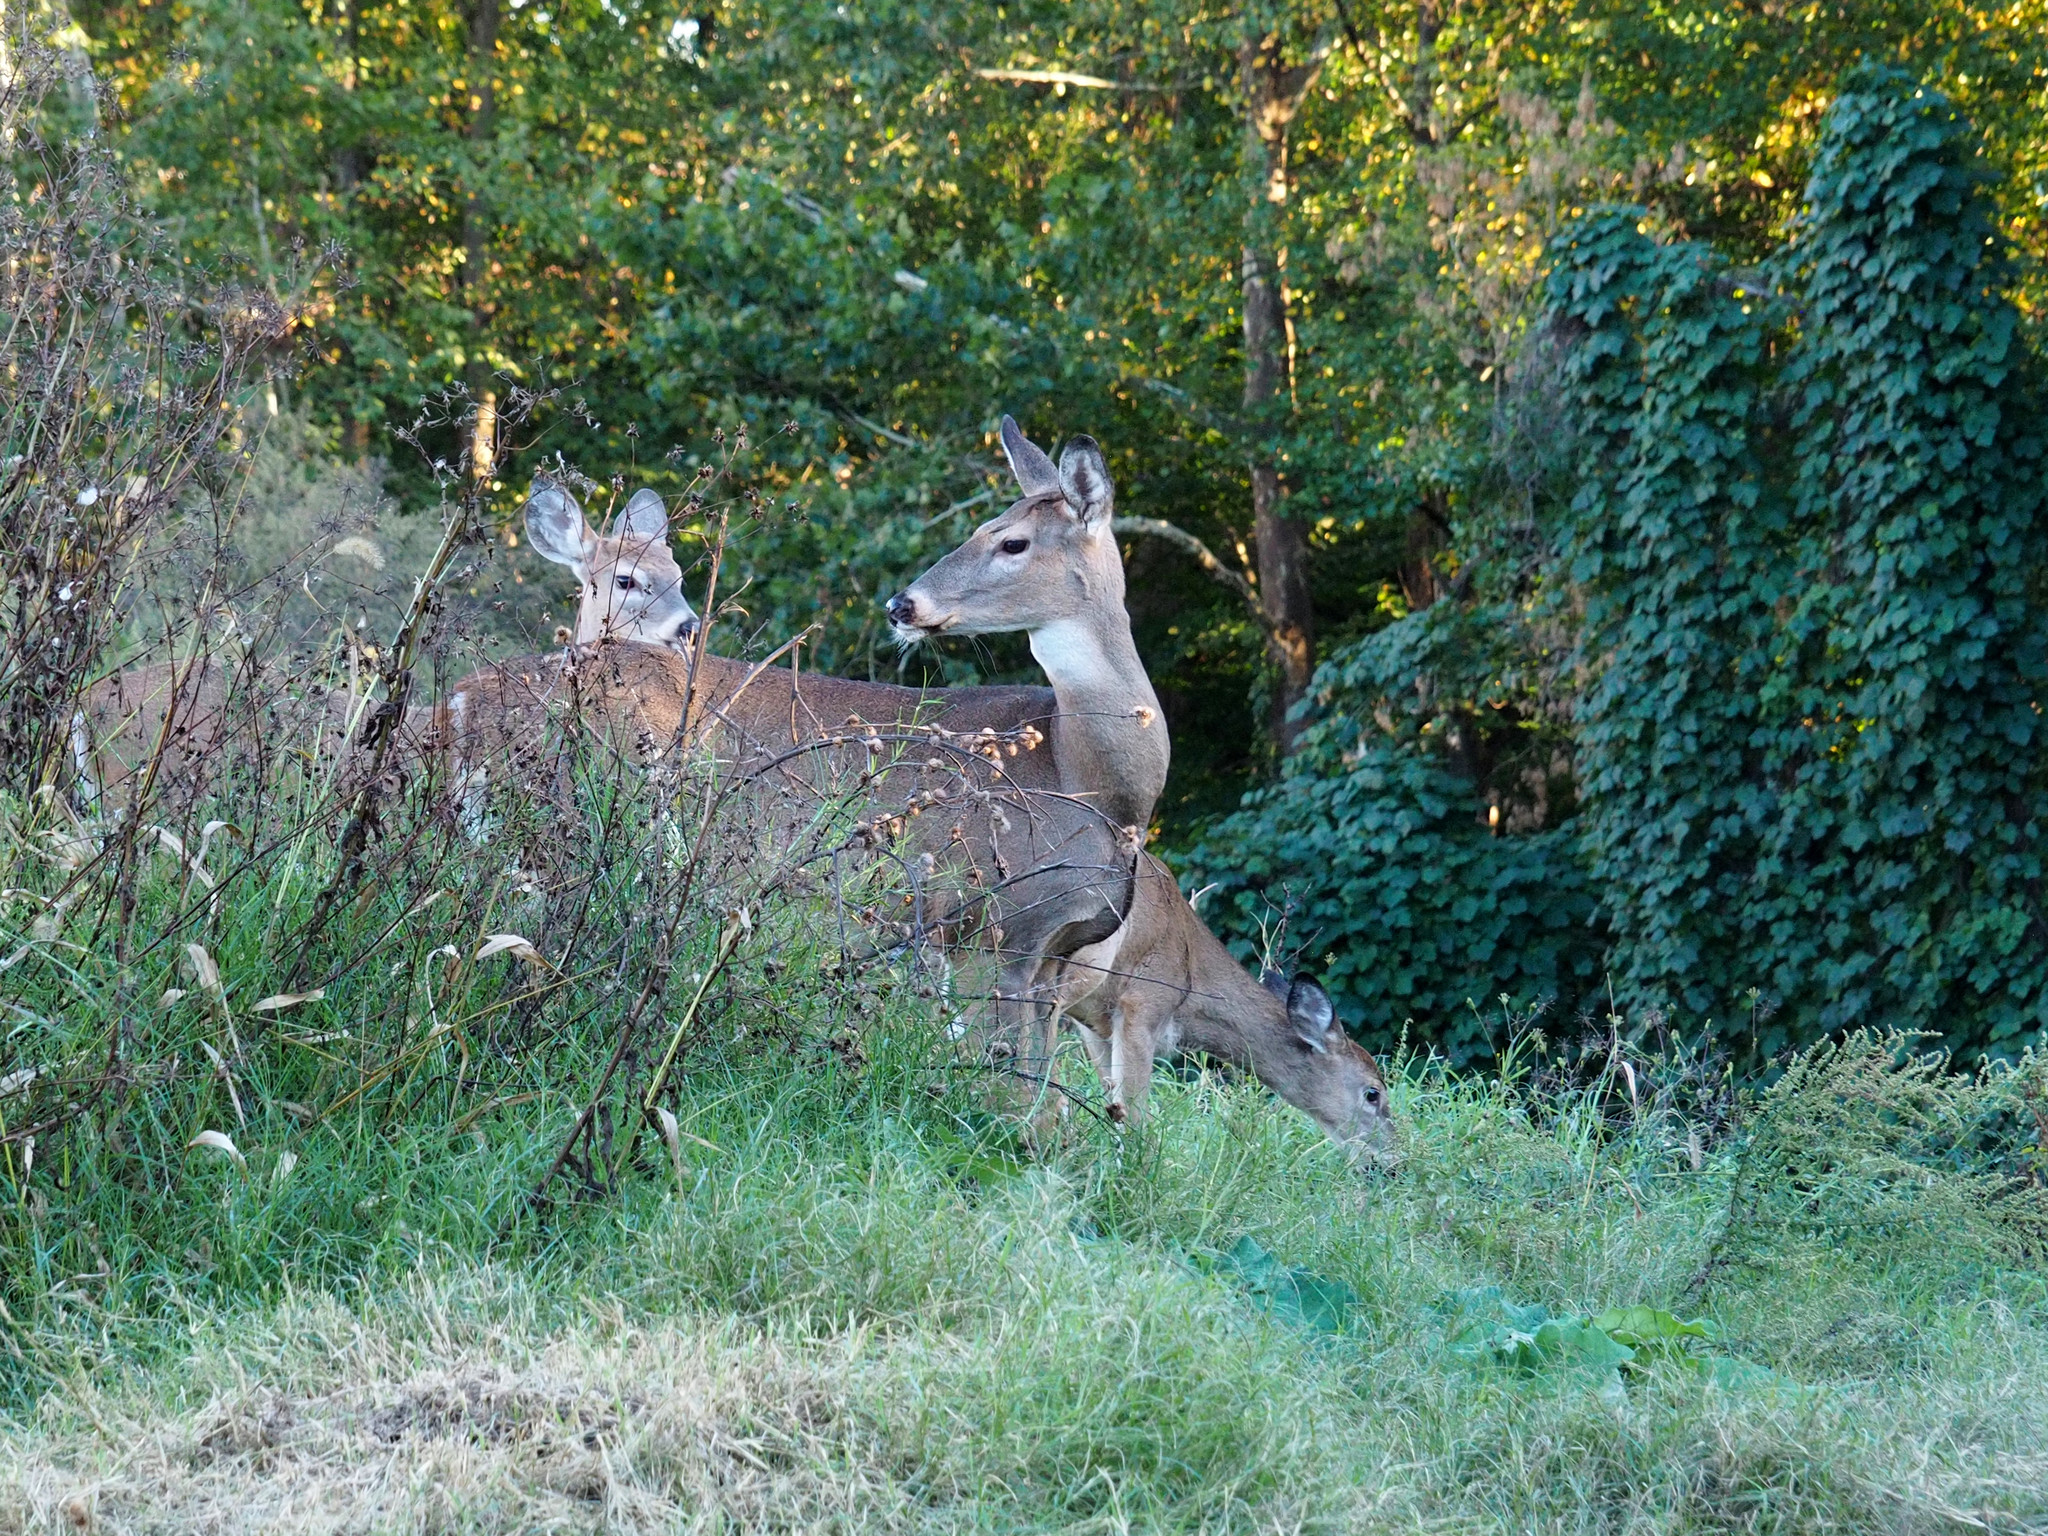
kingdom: Animalia
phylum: Chordata
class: Mammalia
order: Artiodactyla
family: Cervidae
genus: Odocoileus
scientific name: Odocoileus virginianus
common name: White-tailed deer
